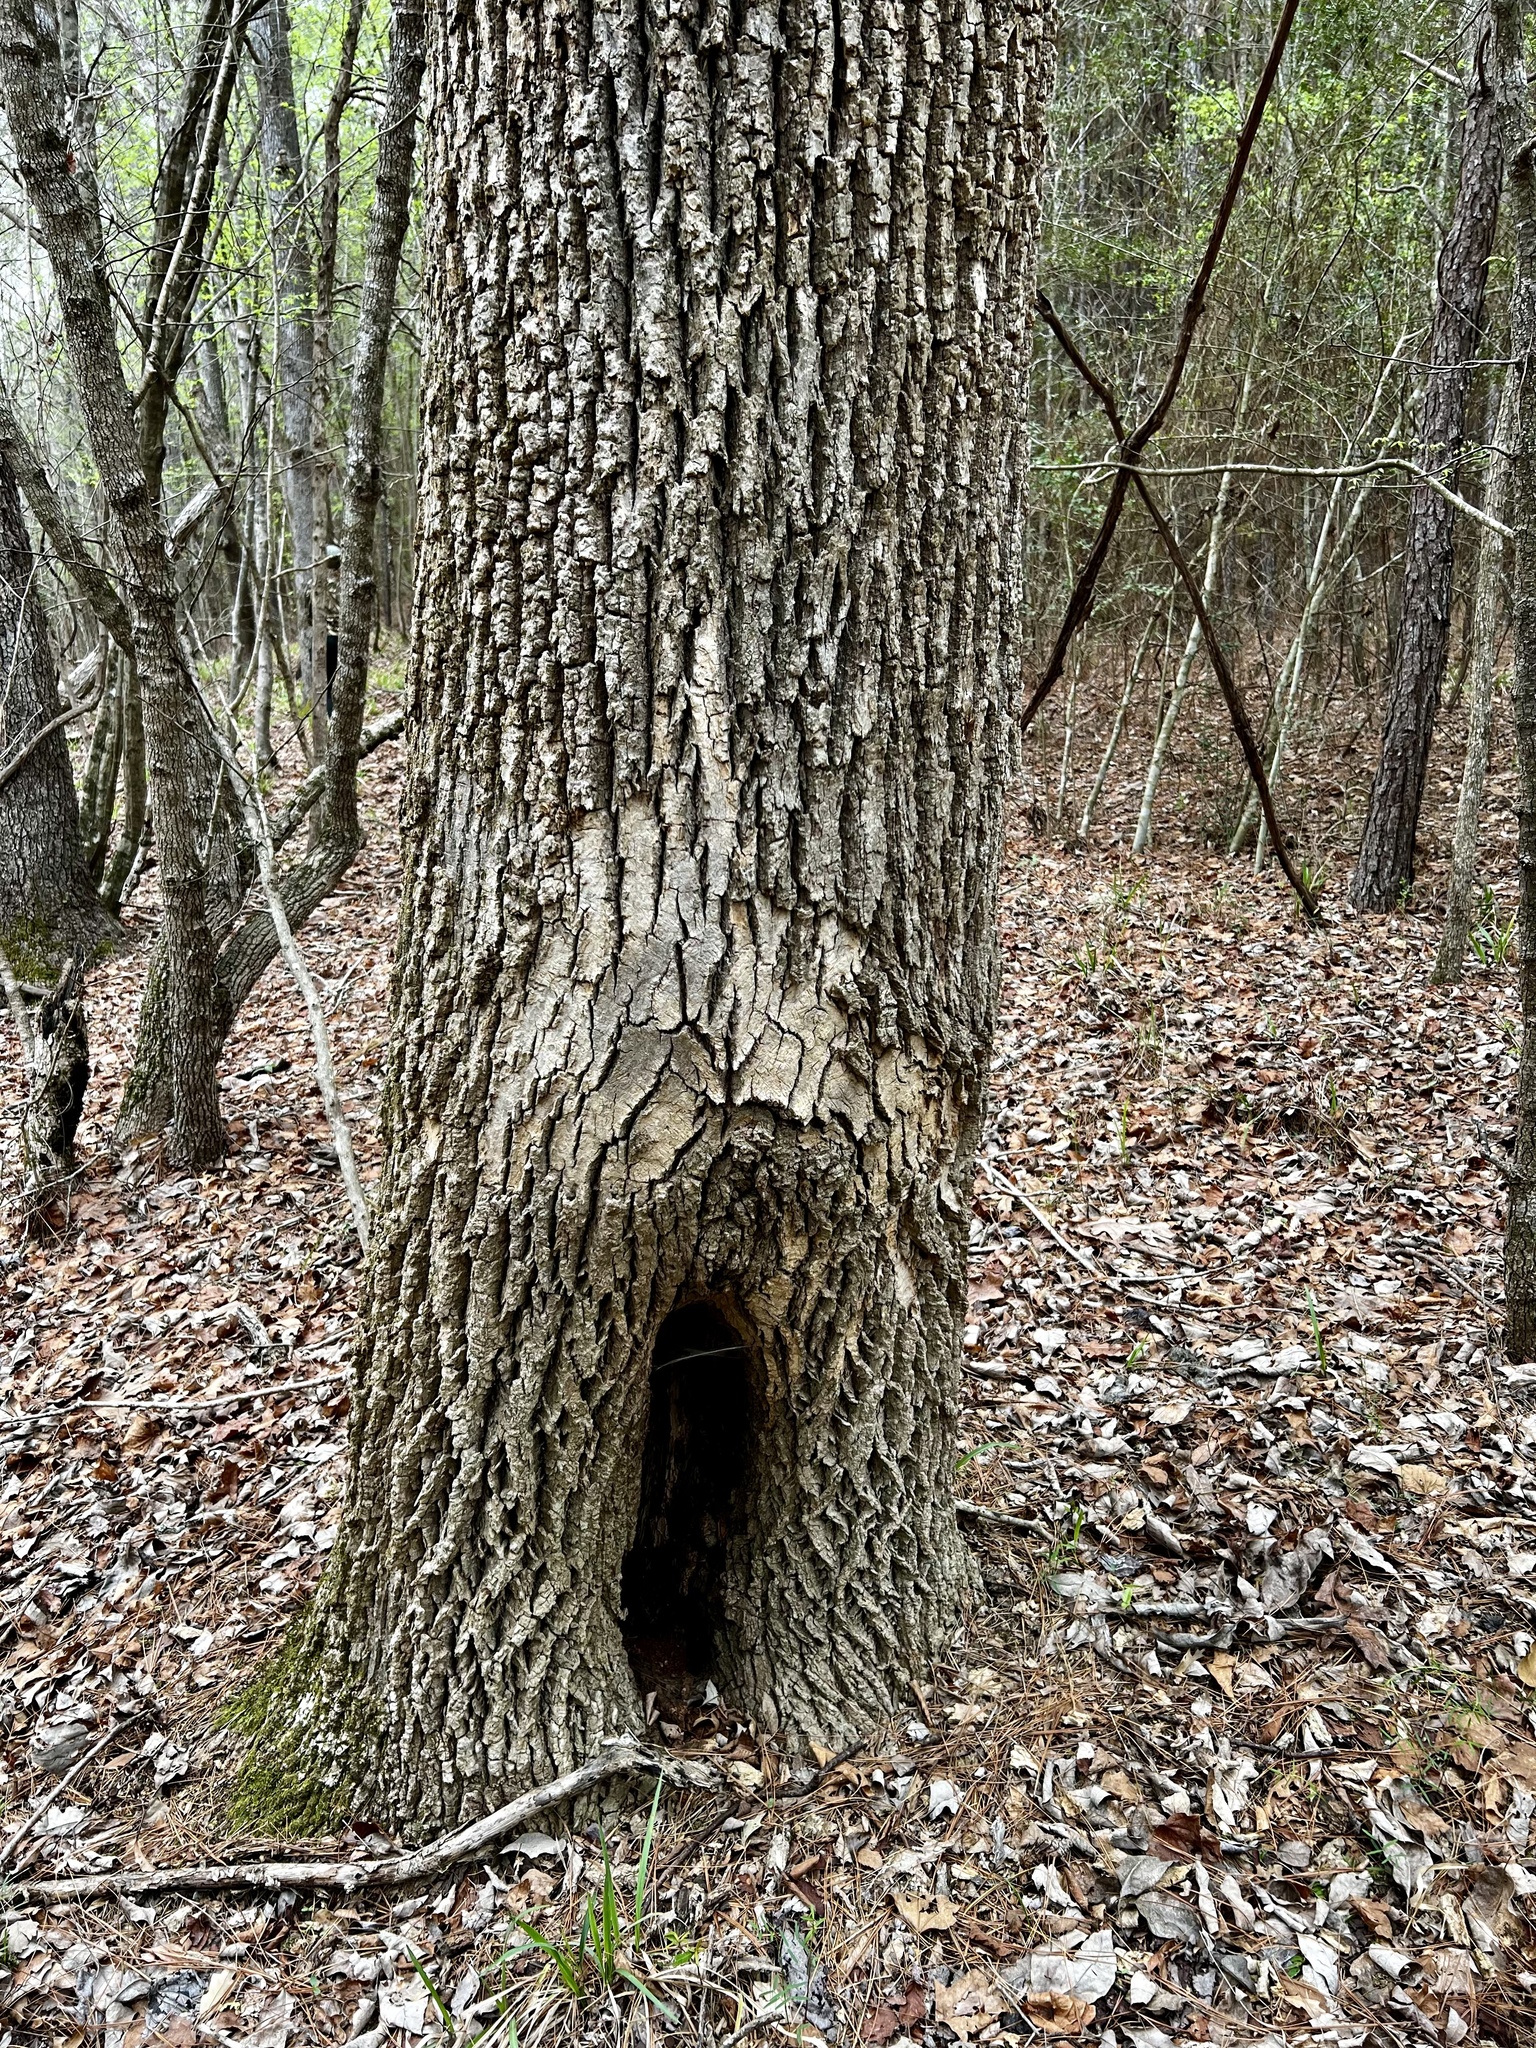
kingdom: Plantae
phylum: Tracheophyta
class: Magnoliopsida
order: Lamiales
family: Oleaceae
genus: Fraxinus
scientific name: Fraxinus americana
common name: White ash
